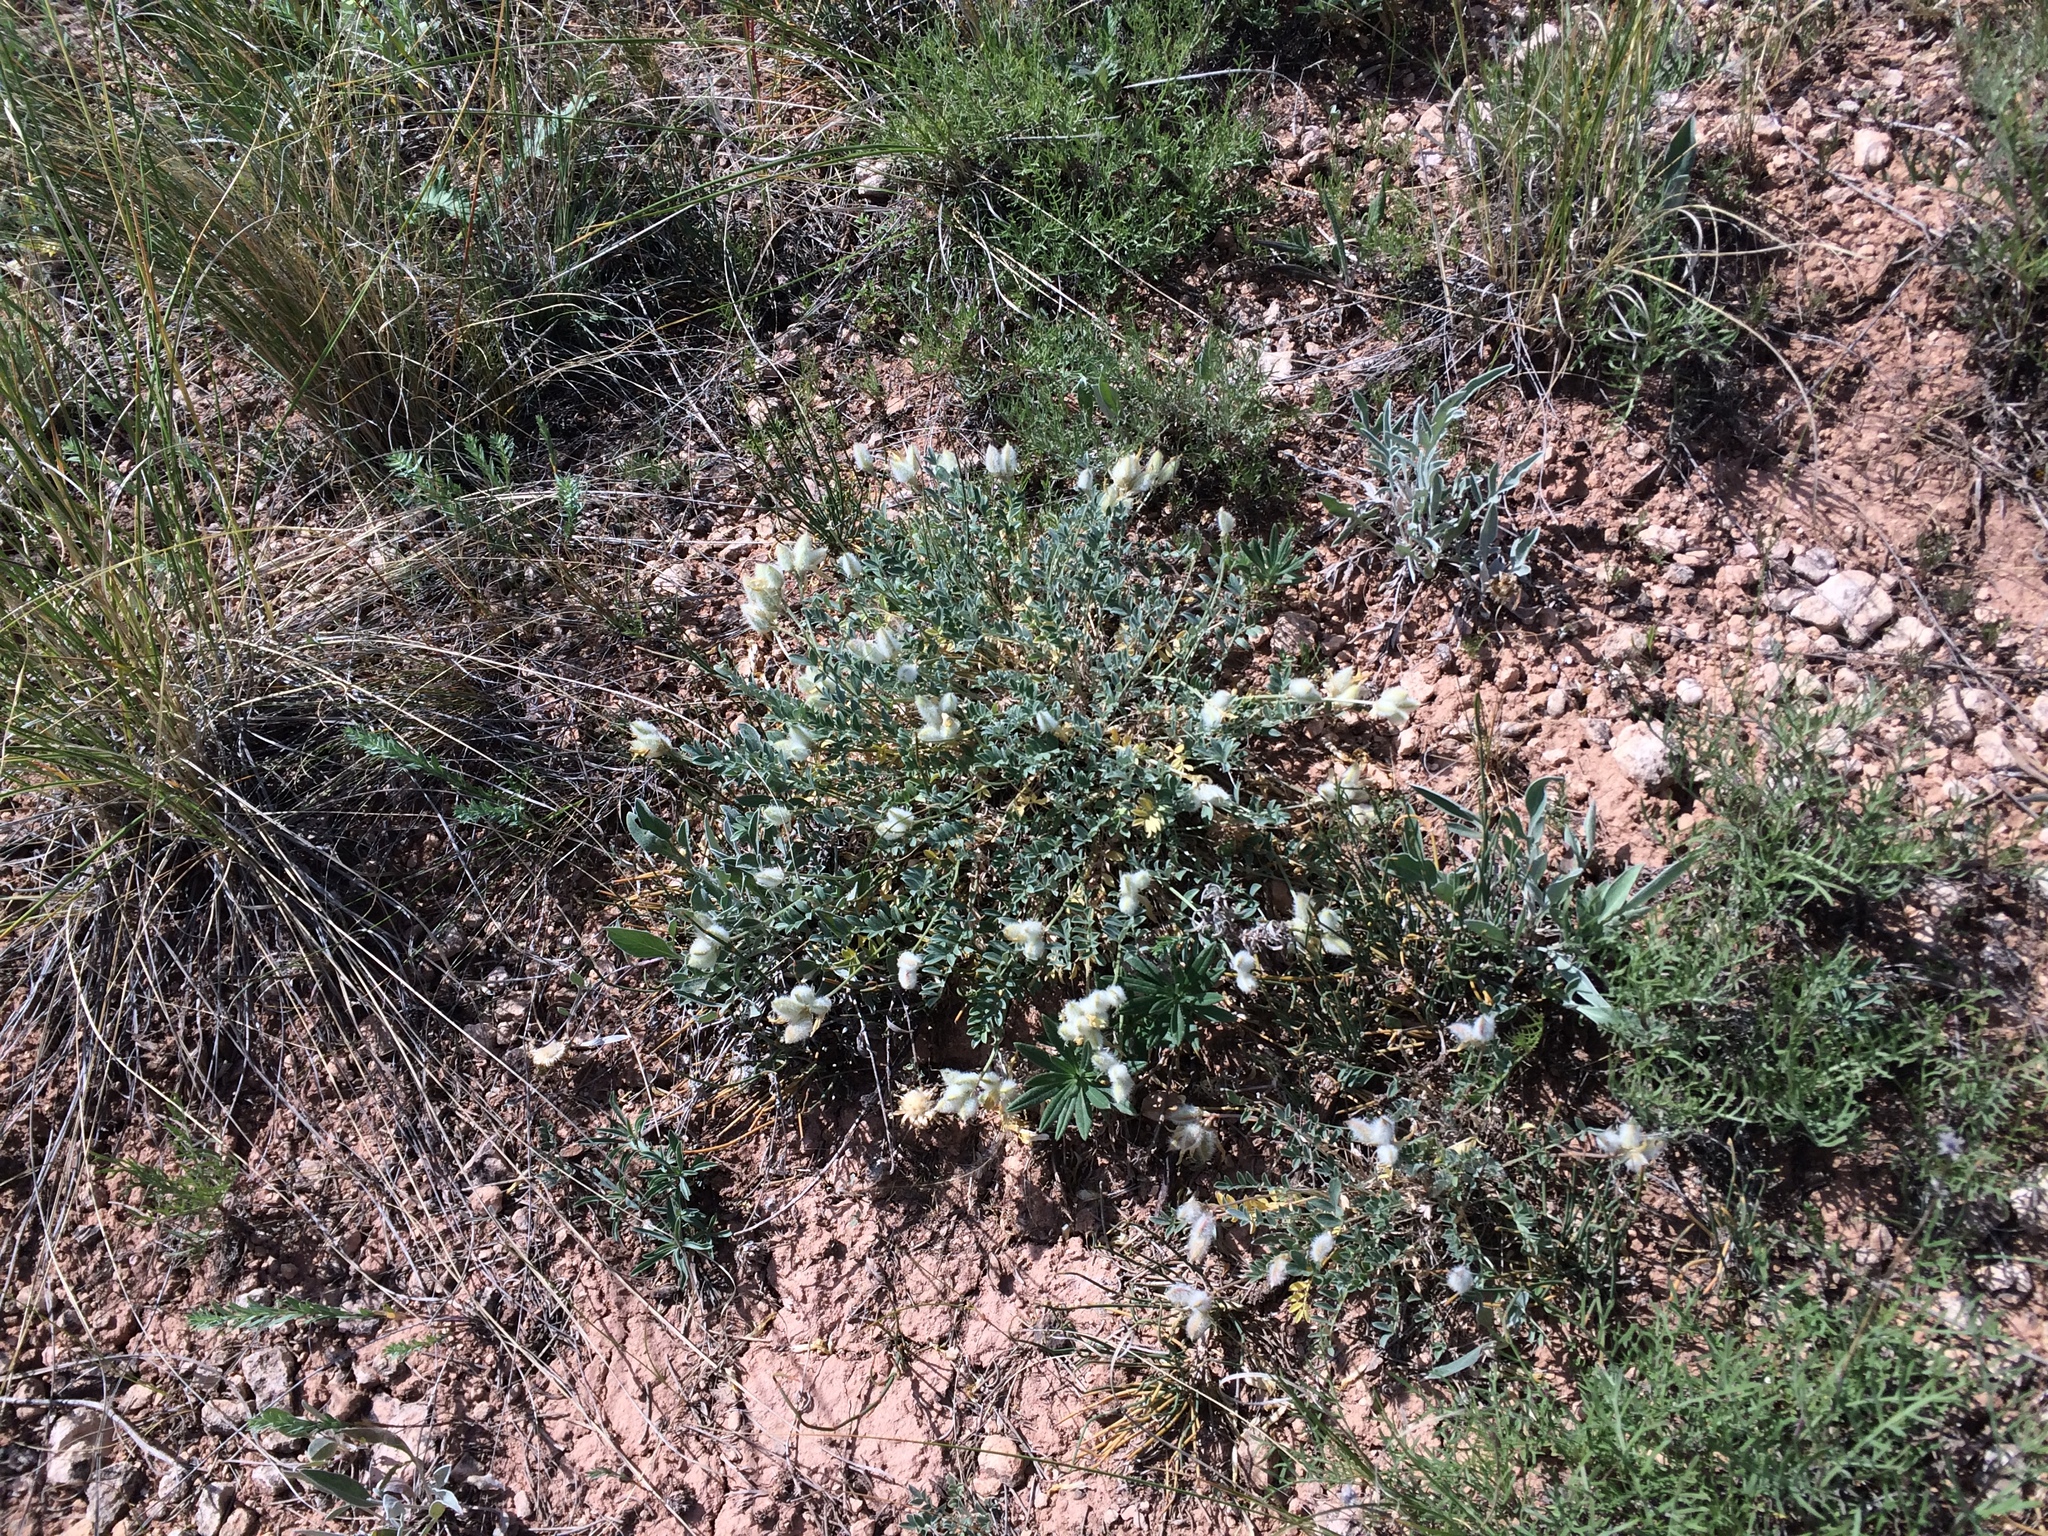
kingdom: Plantae
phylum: Tracheophyta
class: Magnoliopsida
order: Fabales
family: Fabaceae
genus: Astragalus
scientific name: Astragalus helmii
